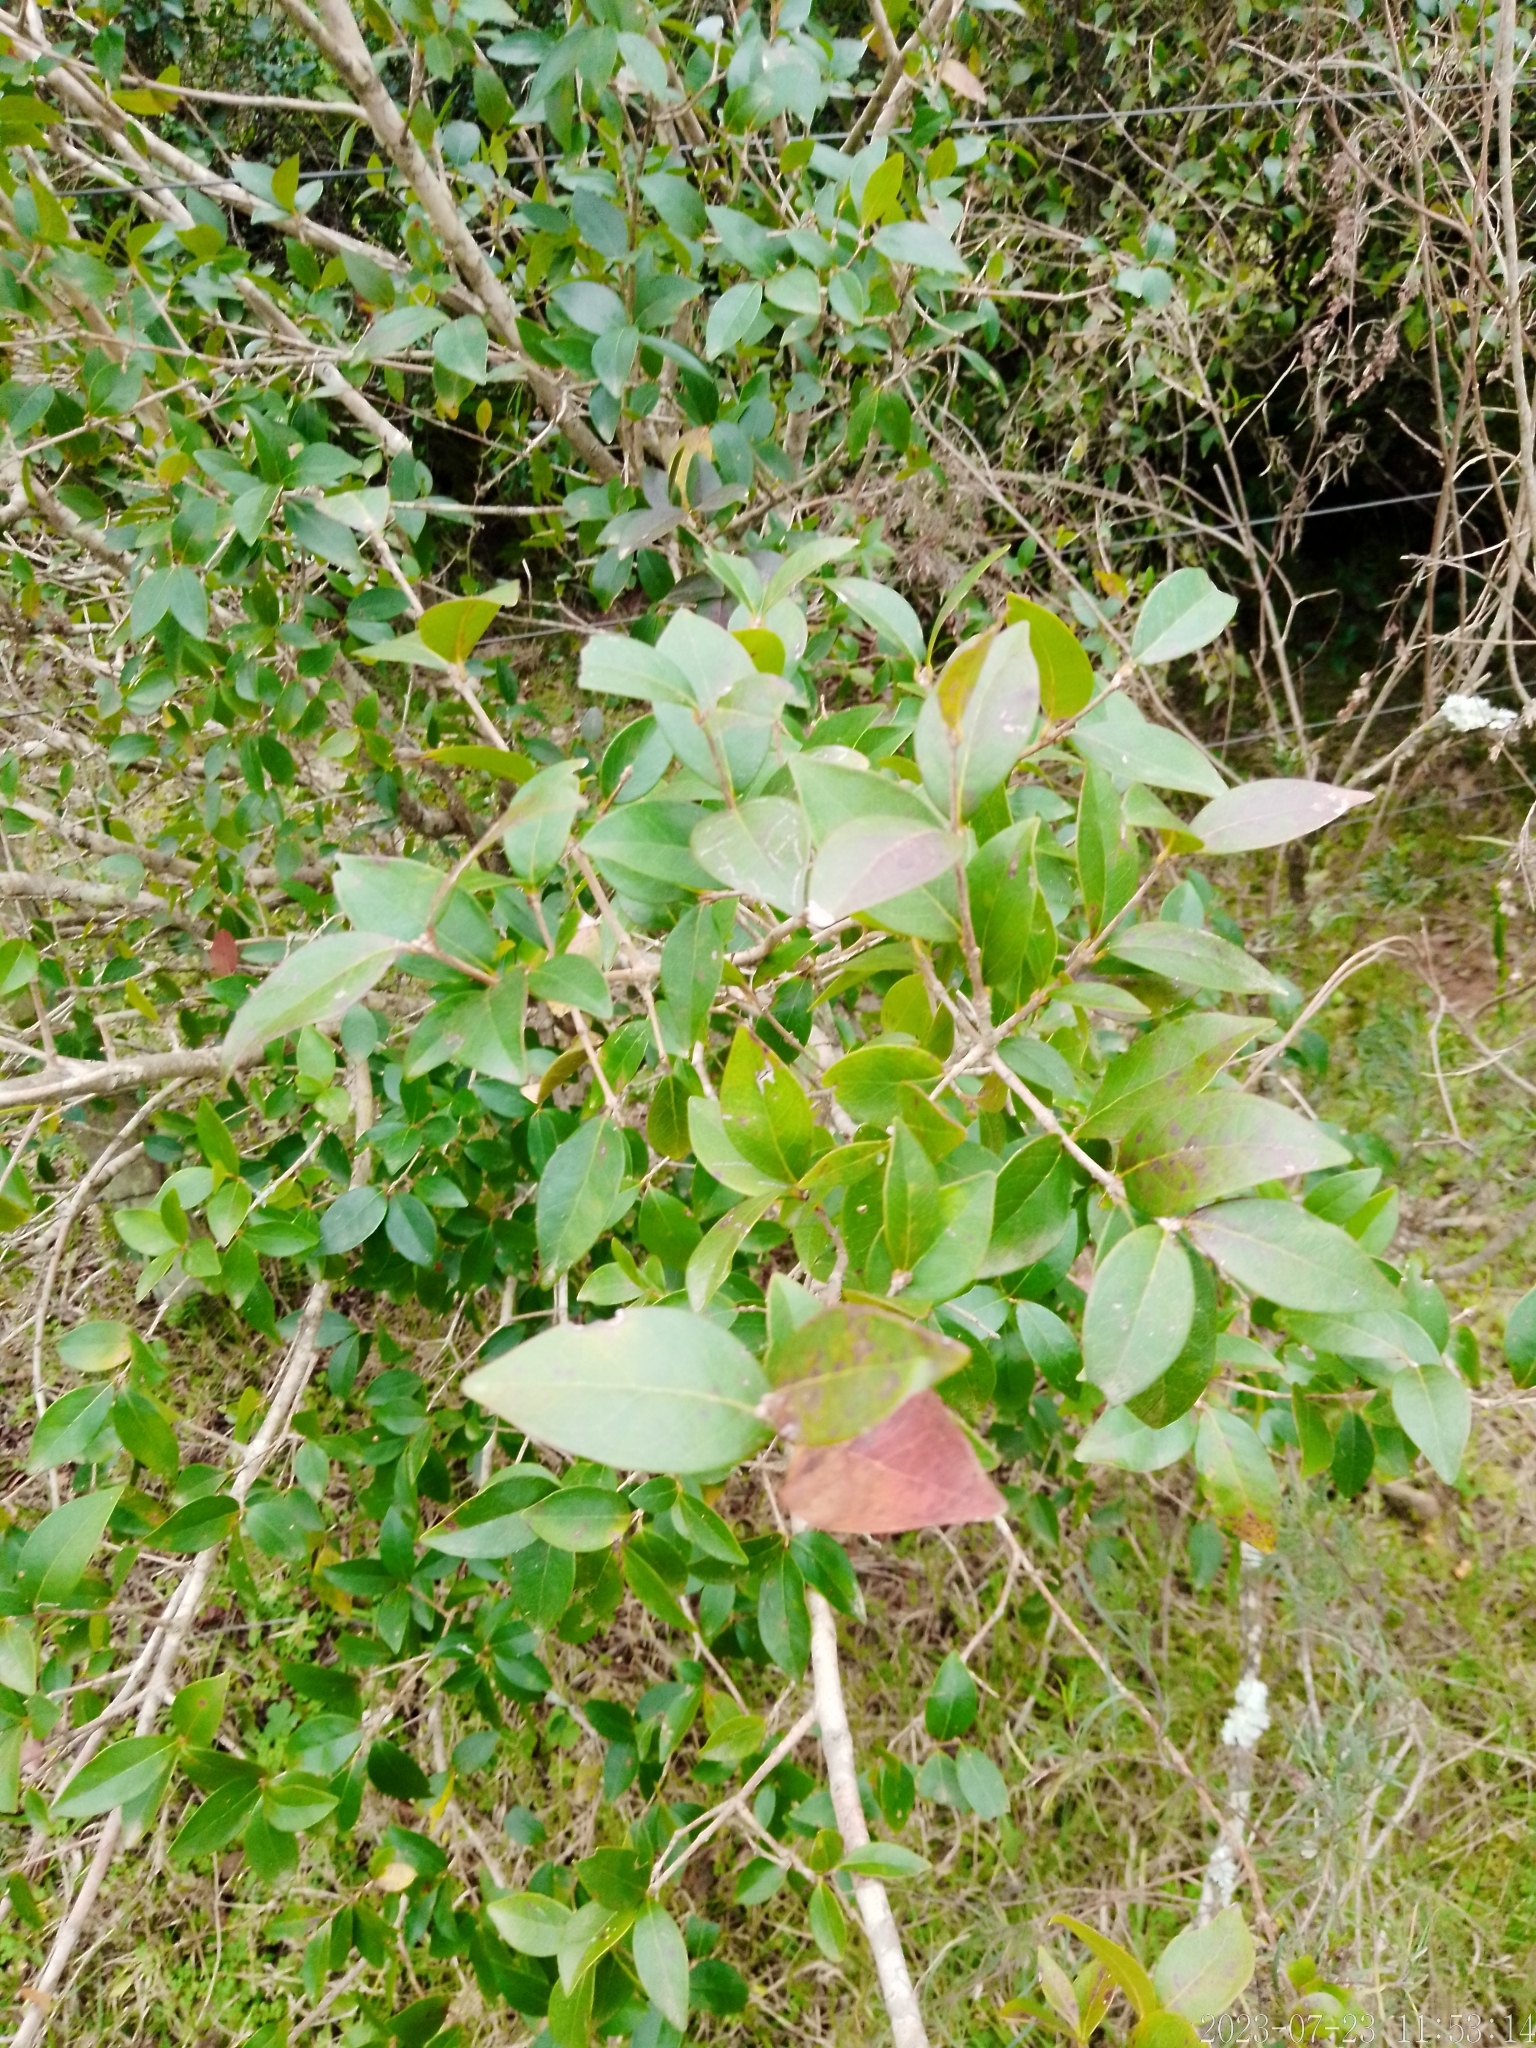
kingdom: Plantae
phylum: Tracheophyta
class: Magnoliopsida
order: Myrtales
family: Myrtaceae
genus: Eugenia
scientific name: Eugenia uniflora
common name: Surinam cherry
